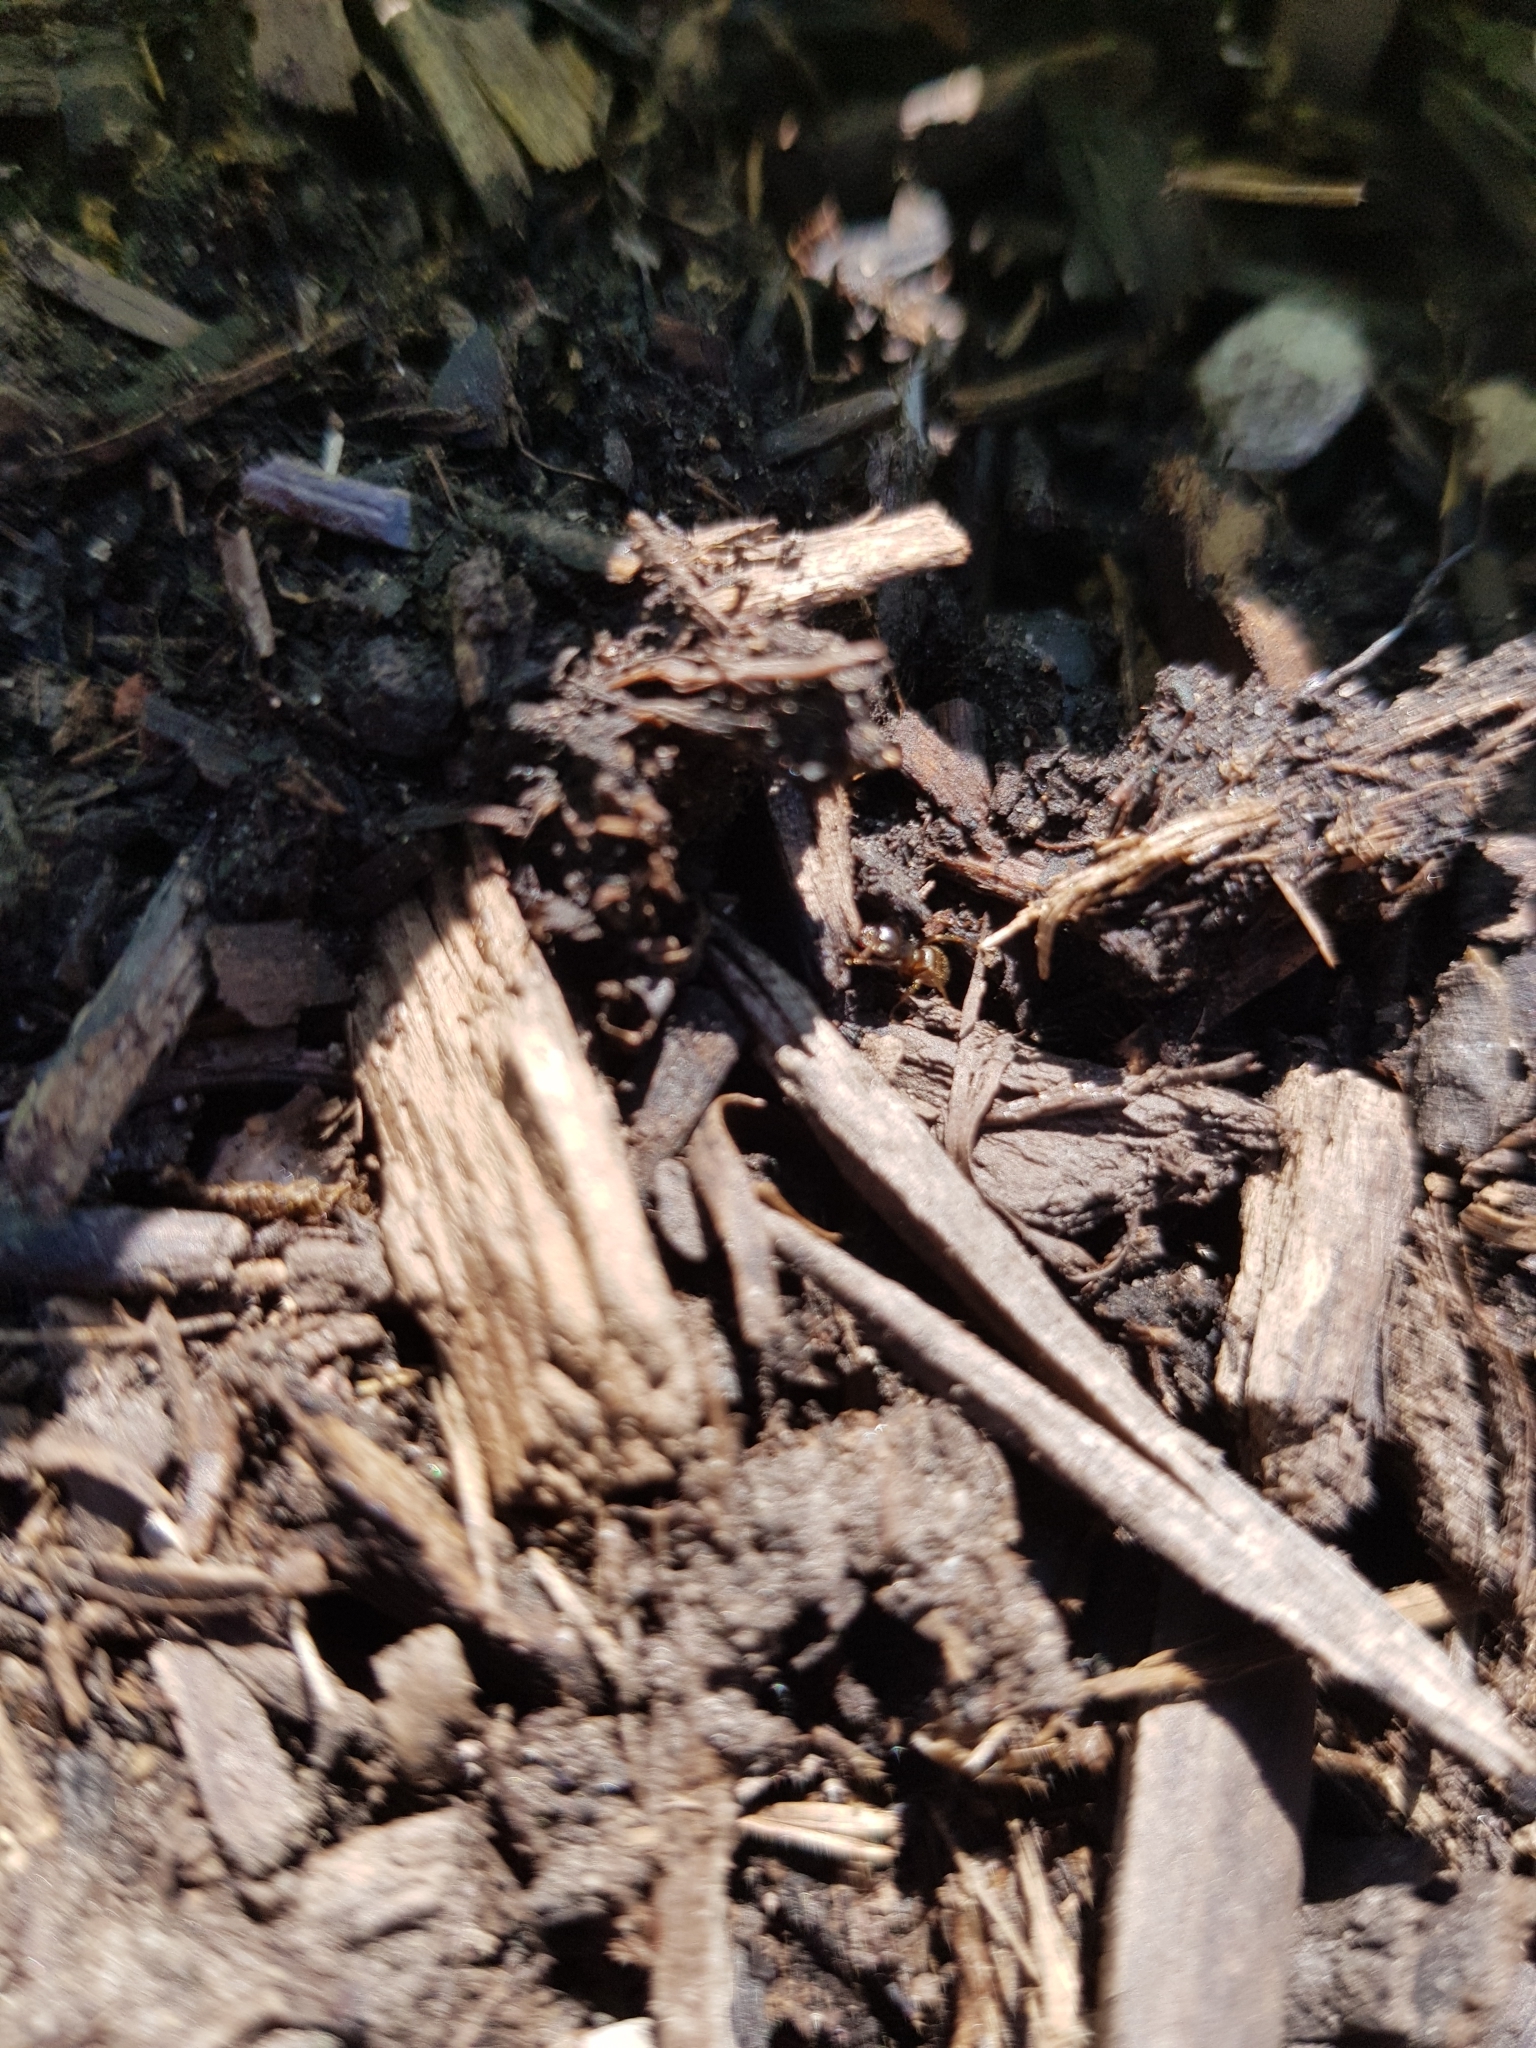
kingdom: Animalia
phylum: Arthropoda
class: Insecta
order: Hymenoptera
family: Formicidae
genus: Formica
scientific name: Formica rufa
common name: Red wood ant
